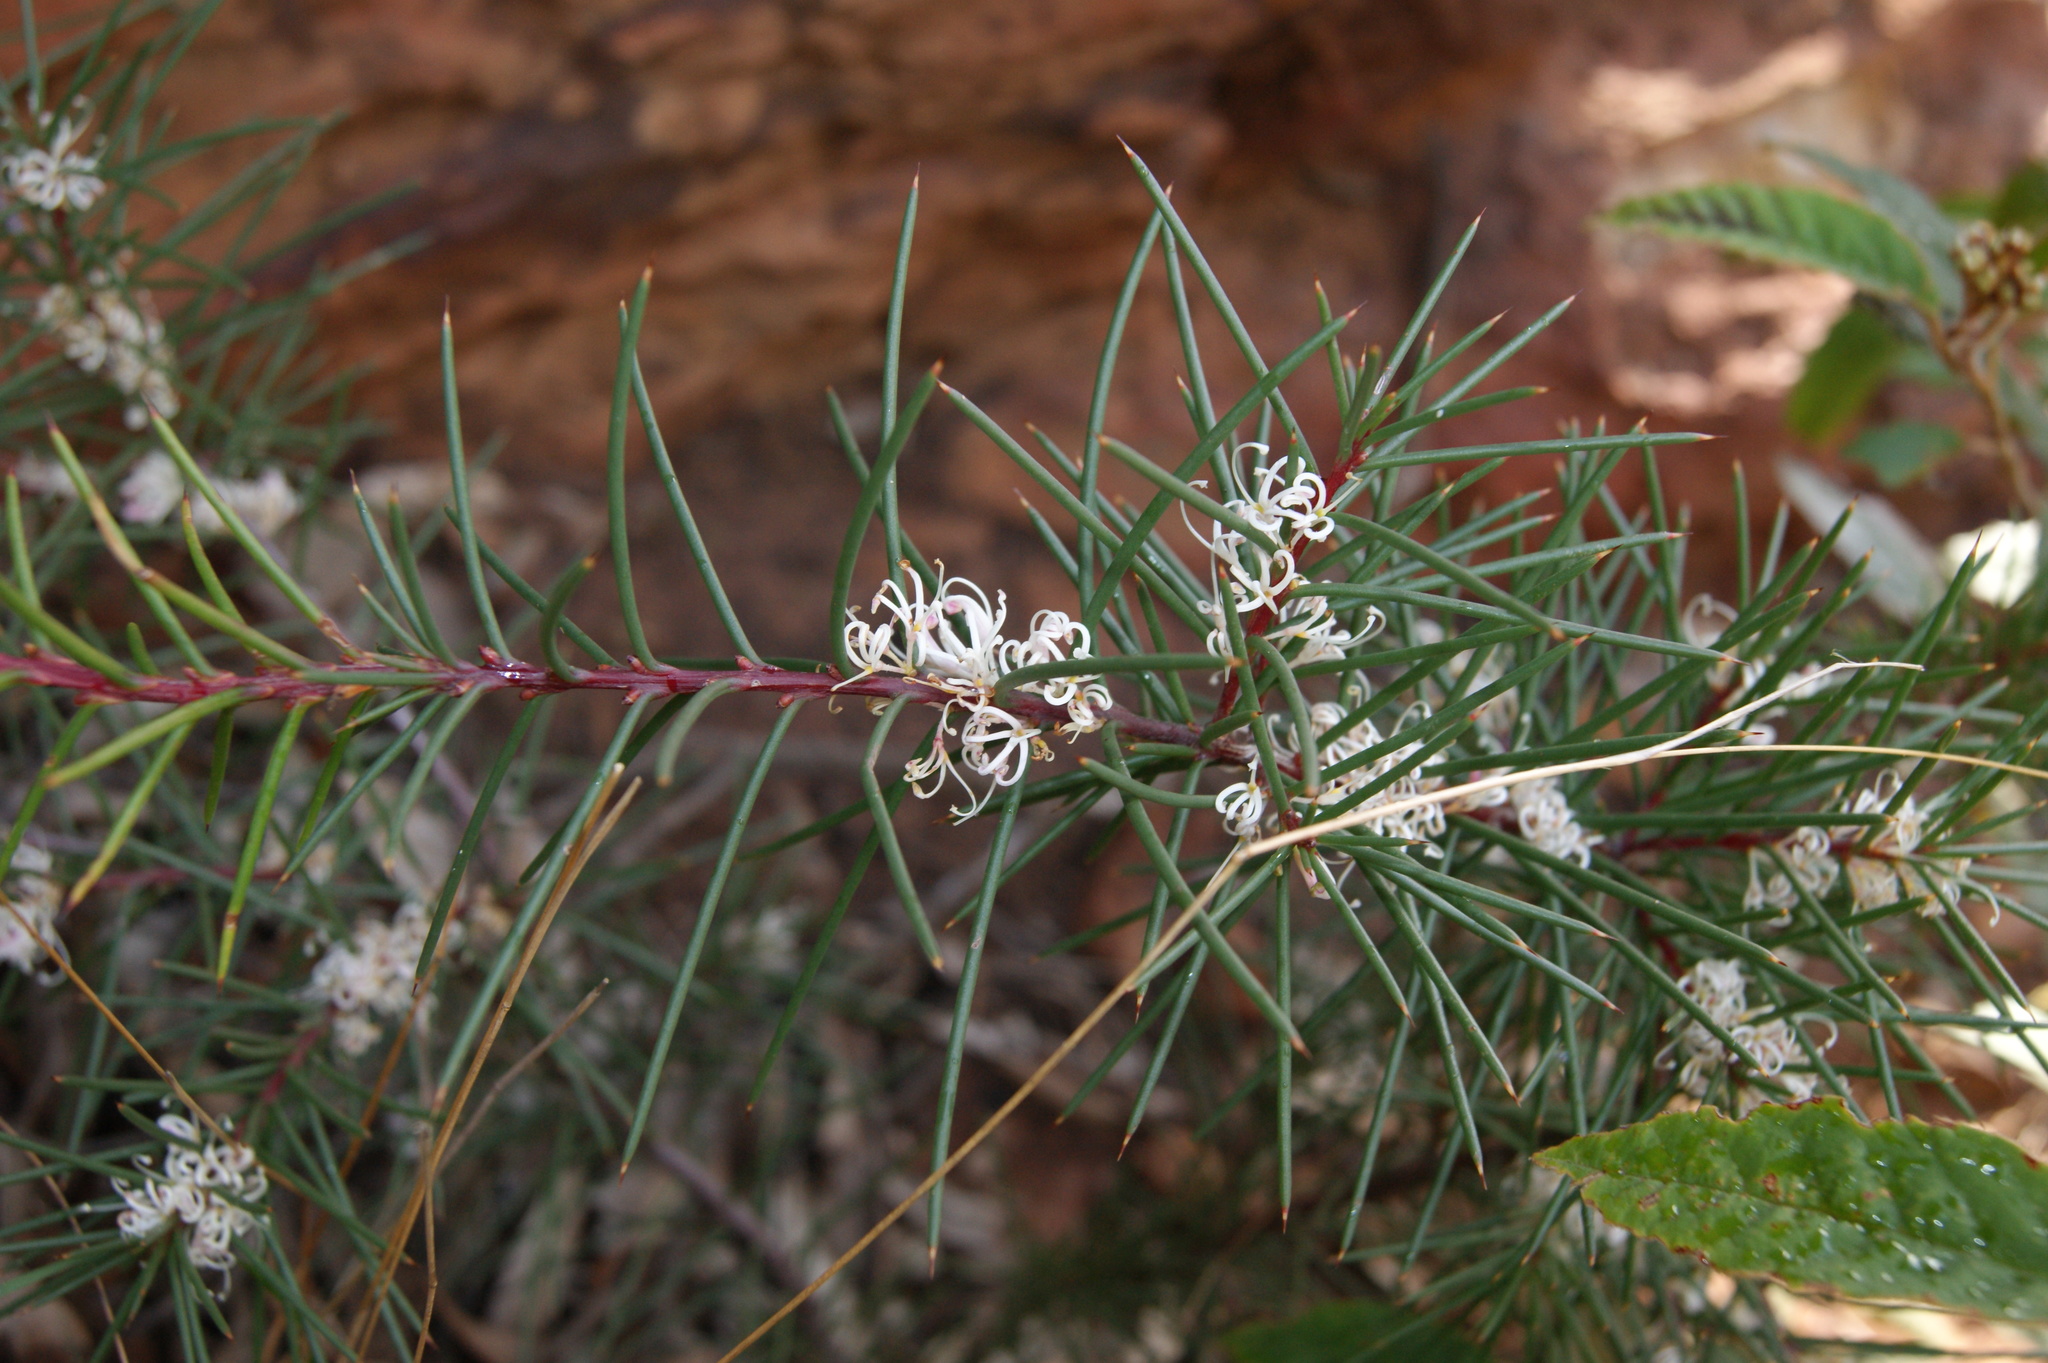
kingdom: Plantae
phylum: Tracheophyta
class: Magnoliopsida
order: Proteales
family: Proteaceae
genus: Hakea
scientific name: Hakea decurrens
